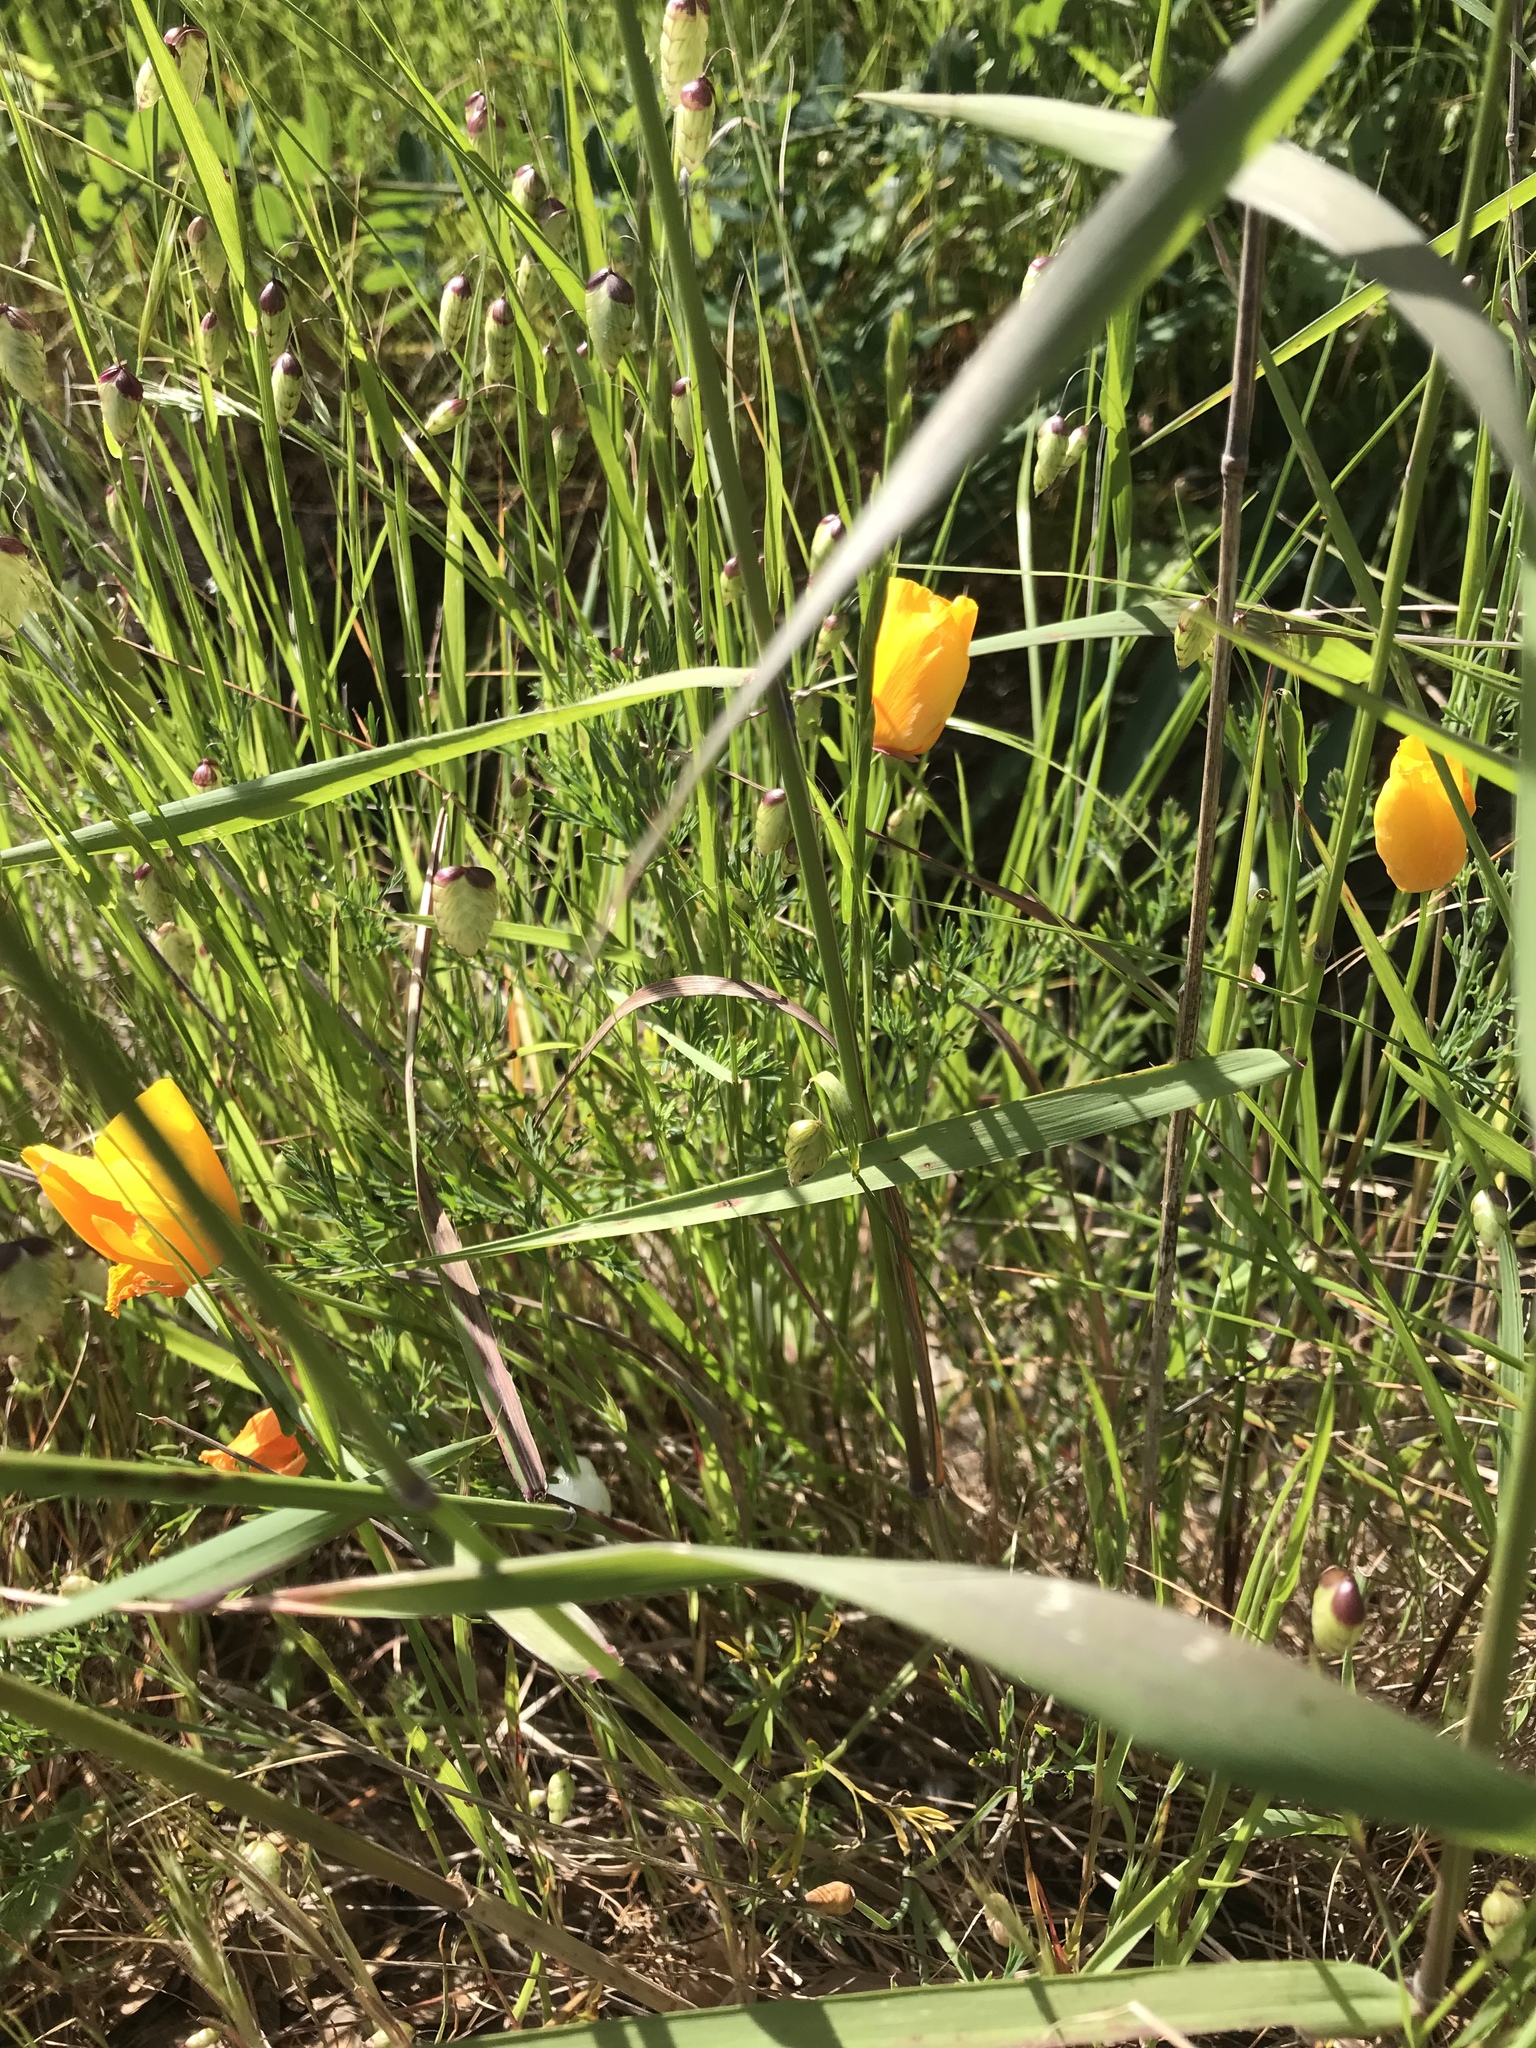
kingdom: Plantae
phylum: Tracheophyta
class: Magnoliopsida
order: Ranunculales
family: Papaveraceae
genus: Eschscholzia
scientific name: Eschscholzia californica
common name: California poppy
